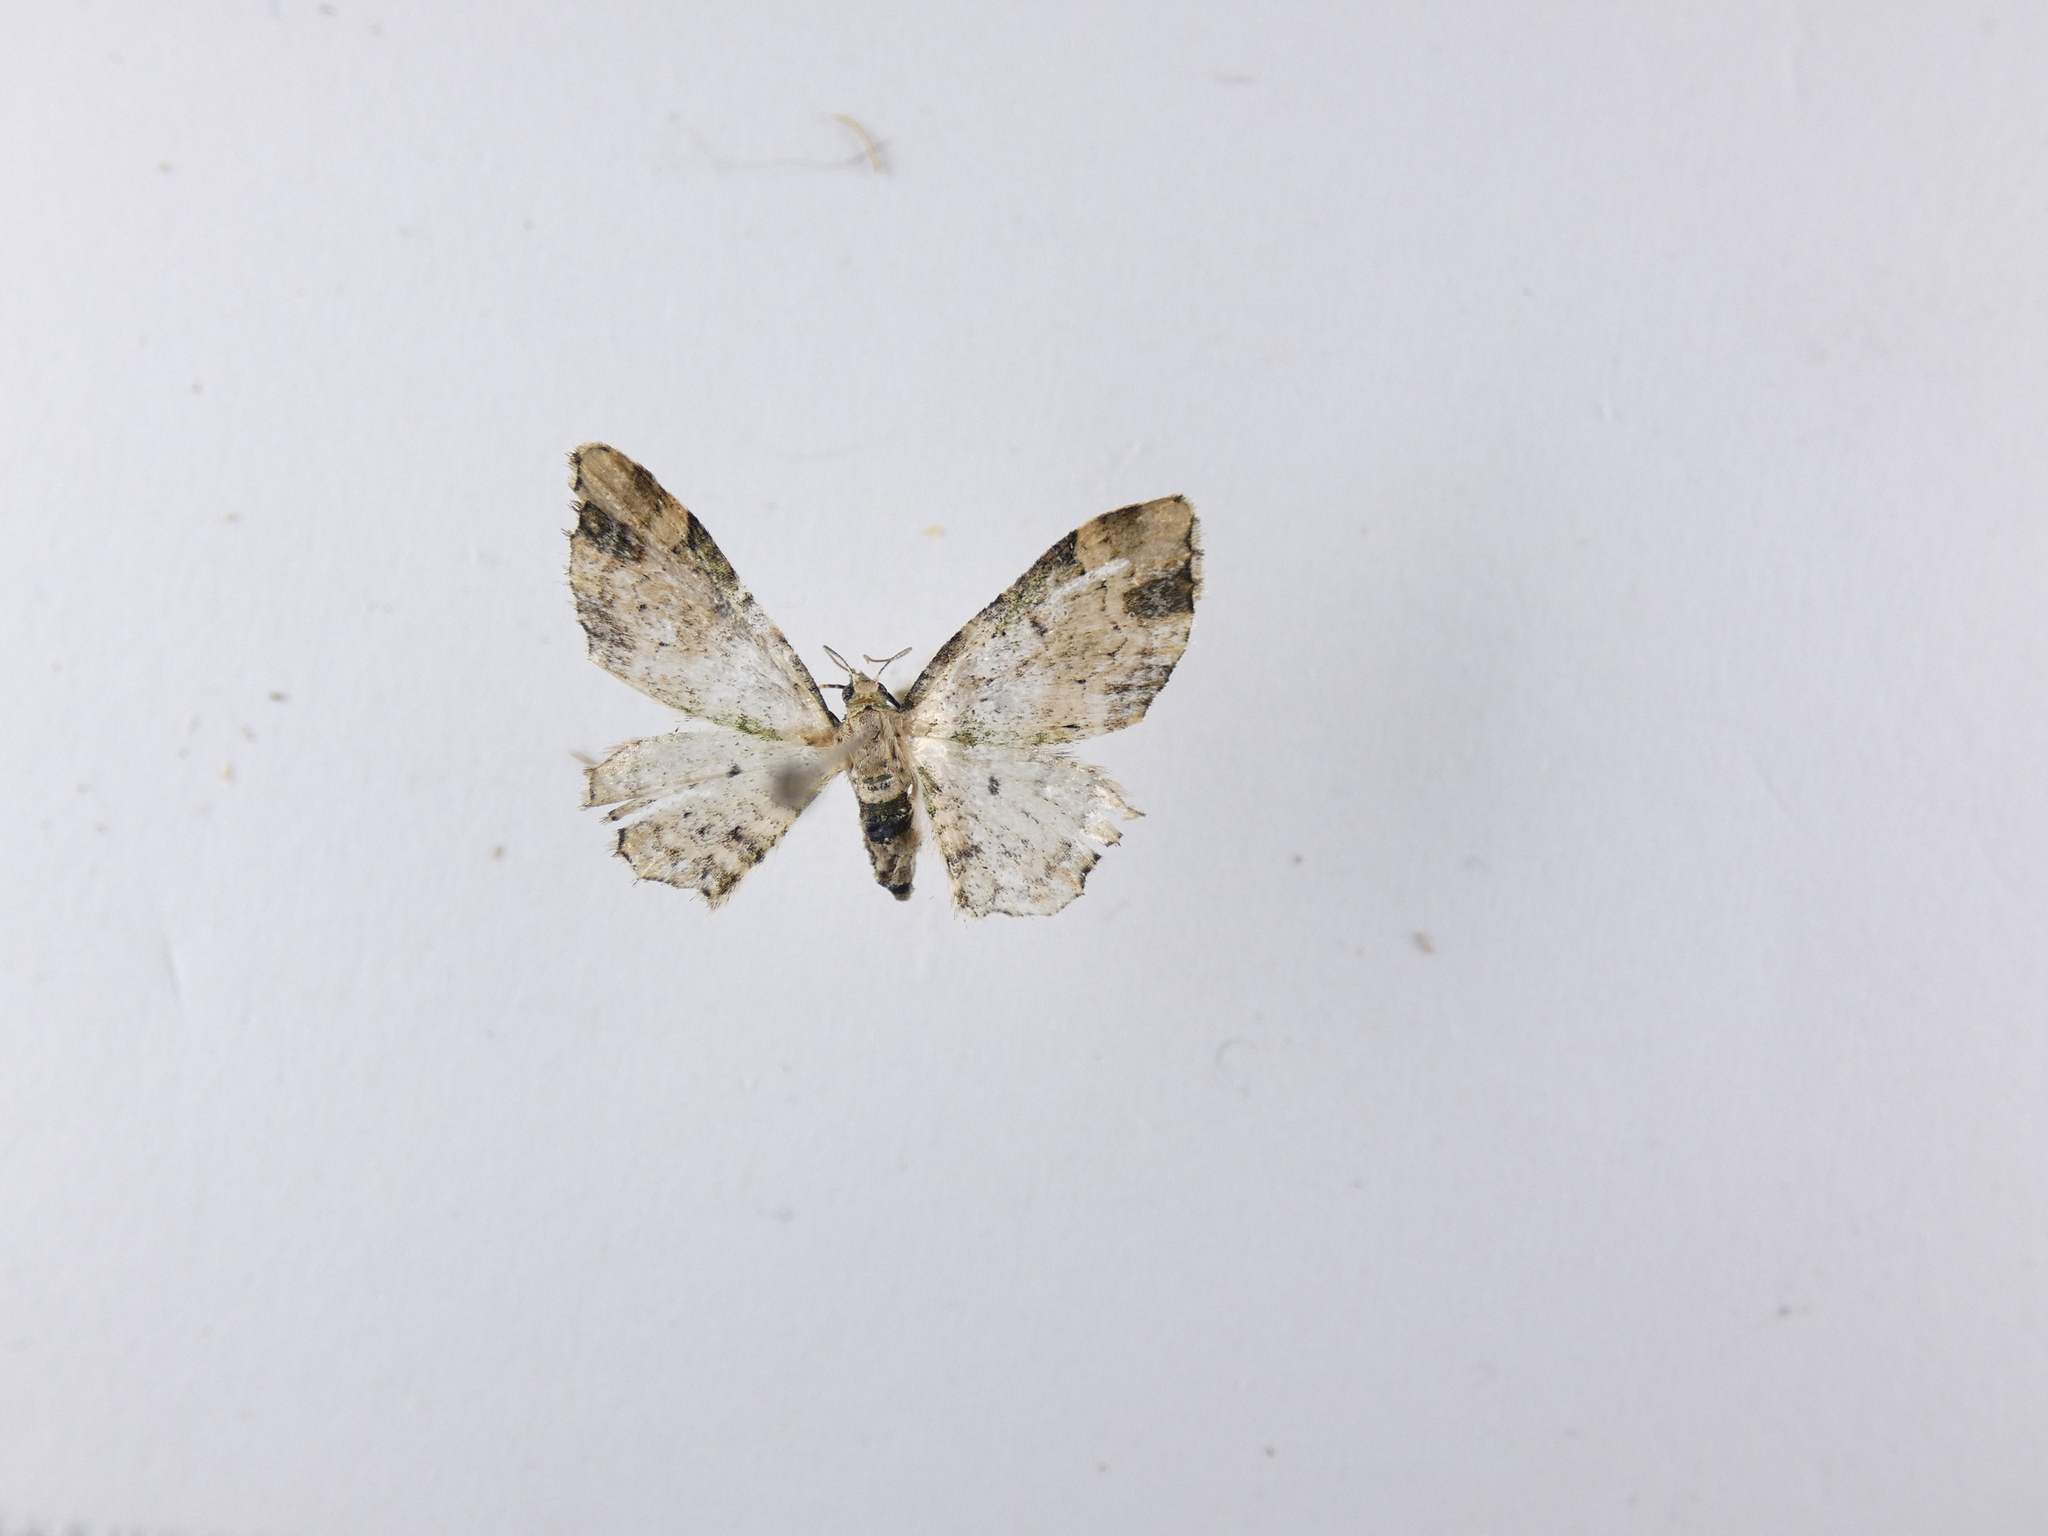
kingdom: Animalia
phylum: Arthropoda
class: Insecta
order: Lepidoptera
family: Geometridae
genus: Chloroclystis
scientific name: Chloroclystis
